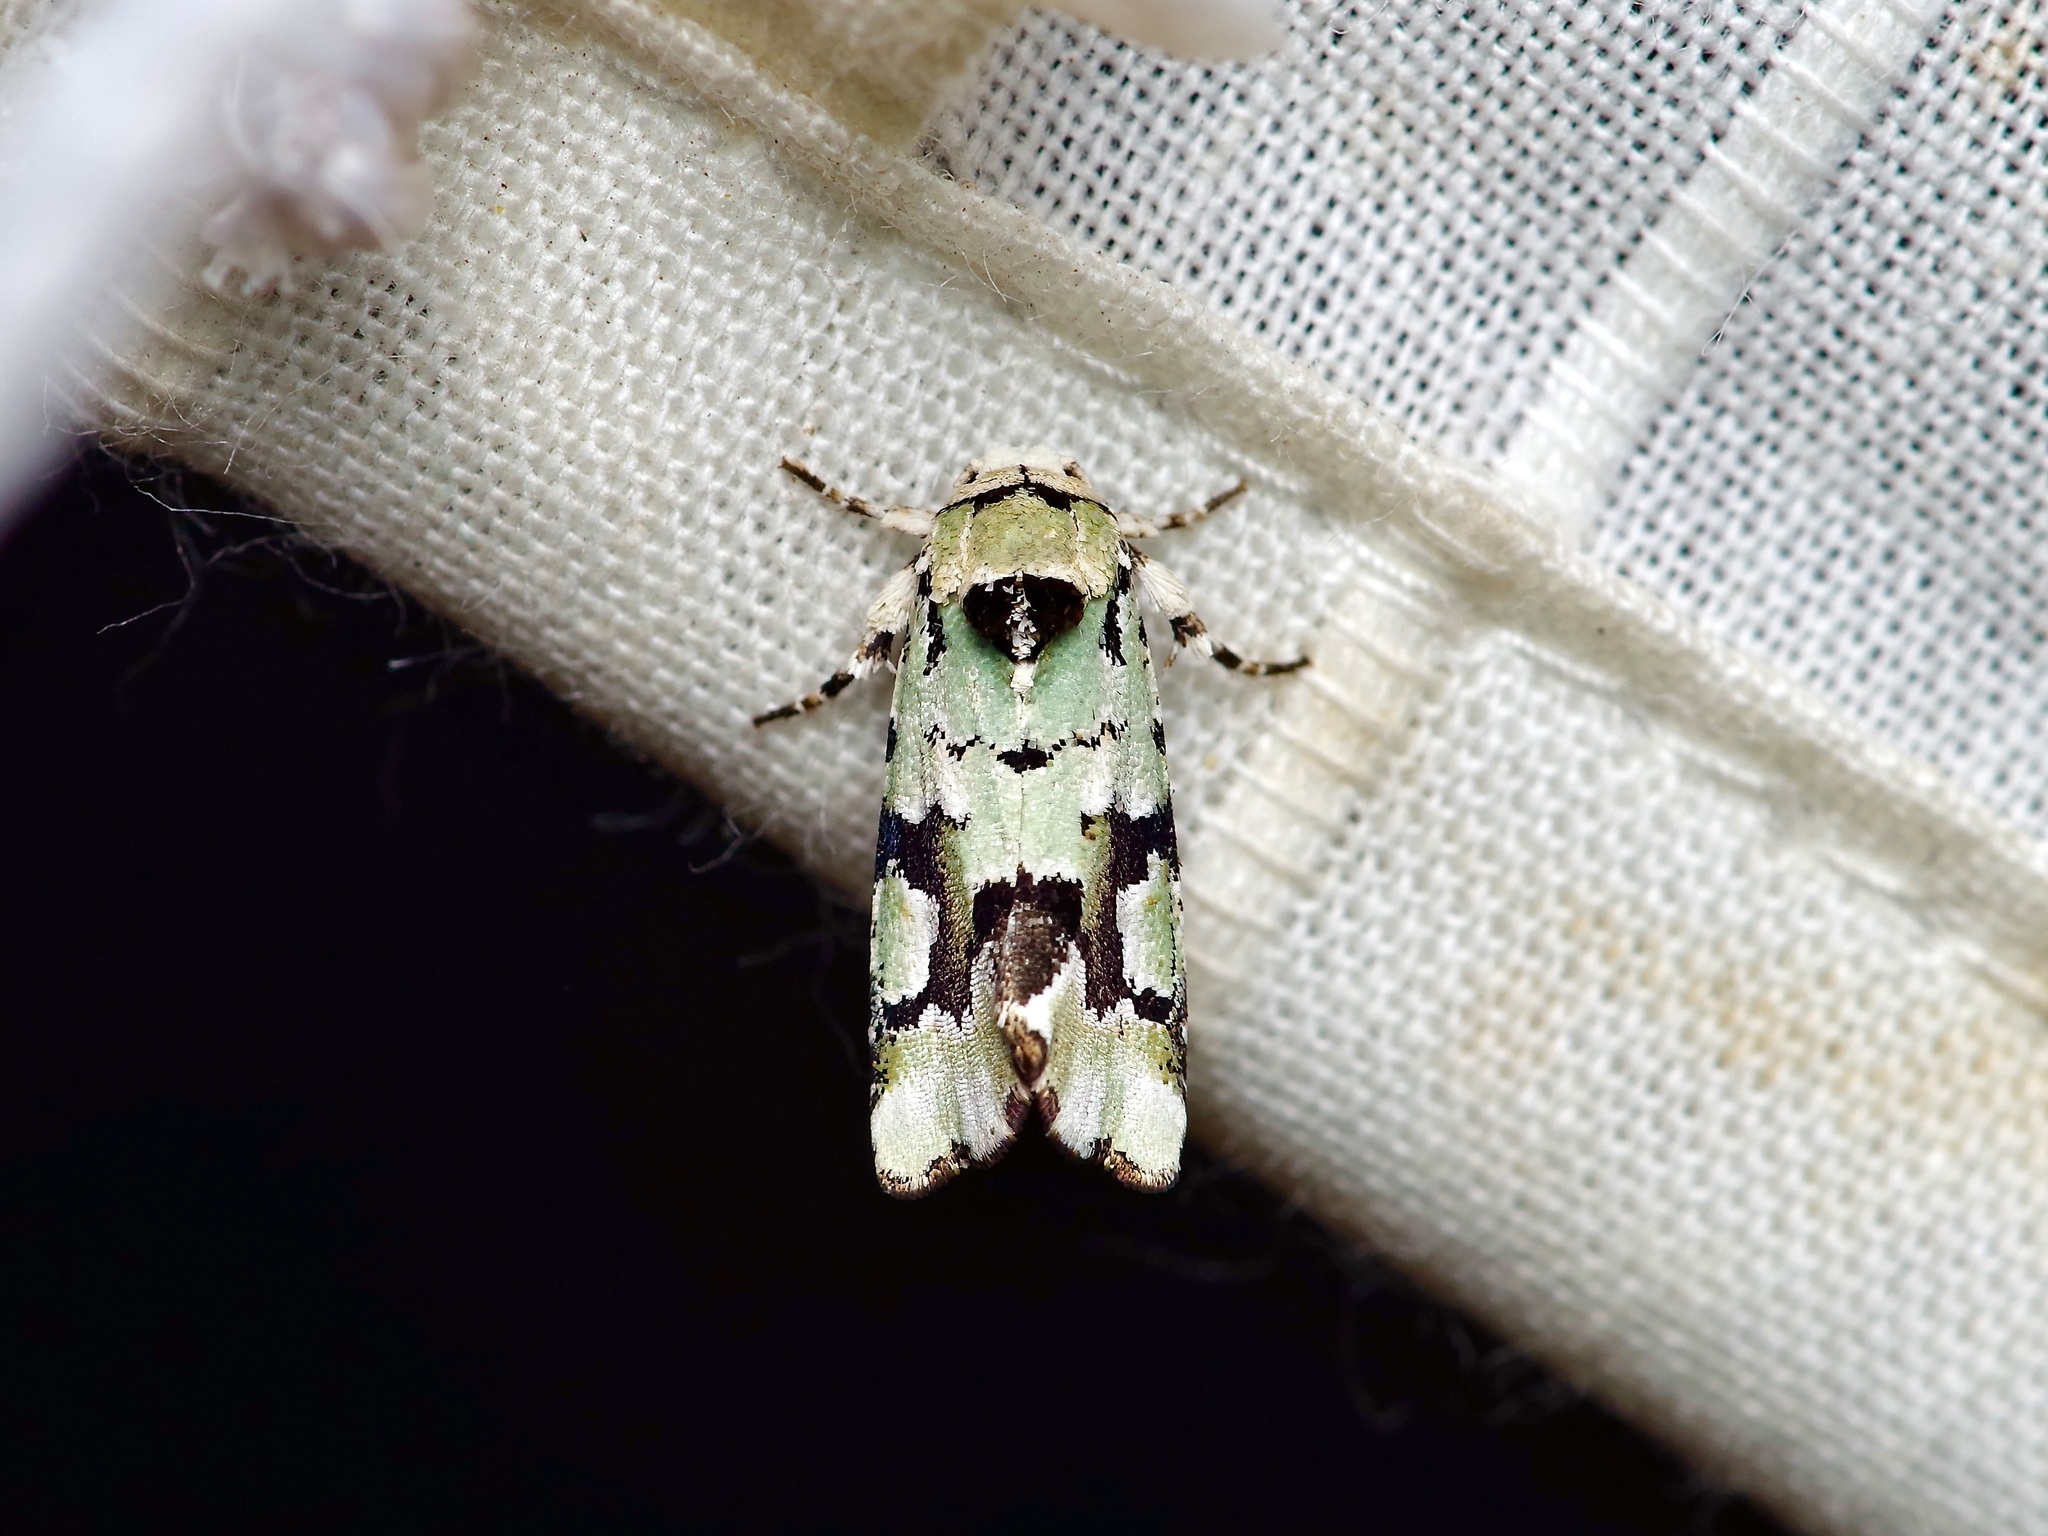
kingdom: Animalia
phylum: Arthropoda
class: Insecta
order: Lepidoptera
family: Noctuidae
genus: Emarginea
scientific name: Emarginea percara
